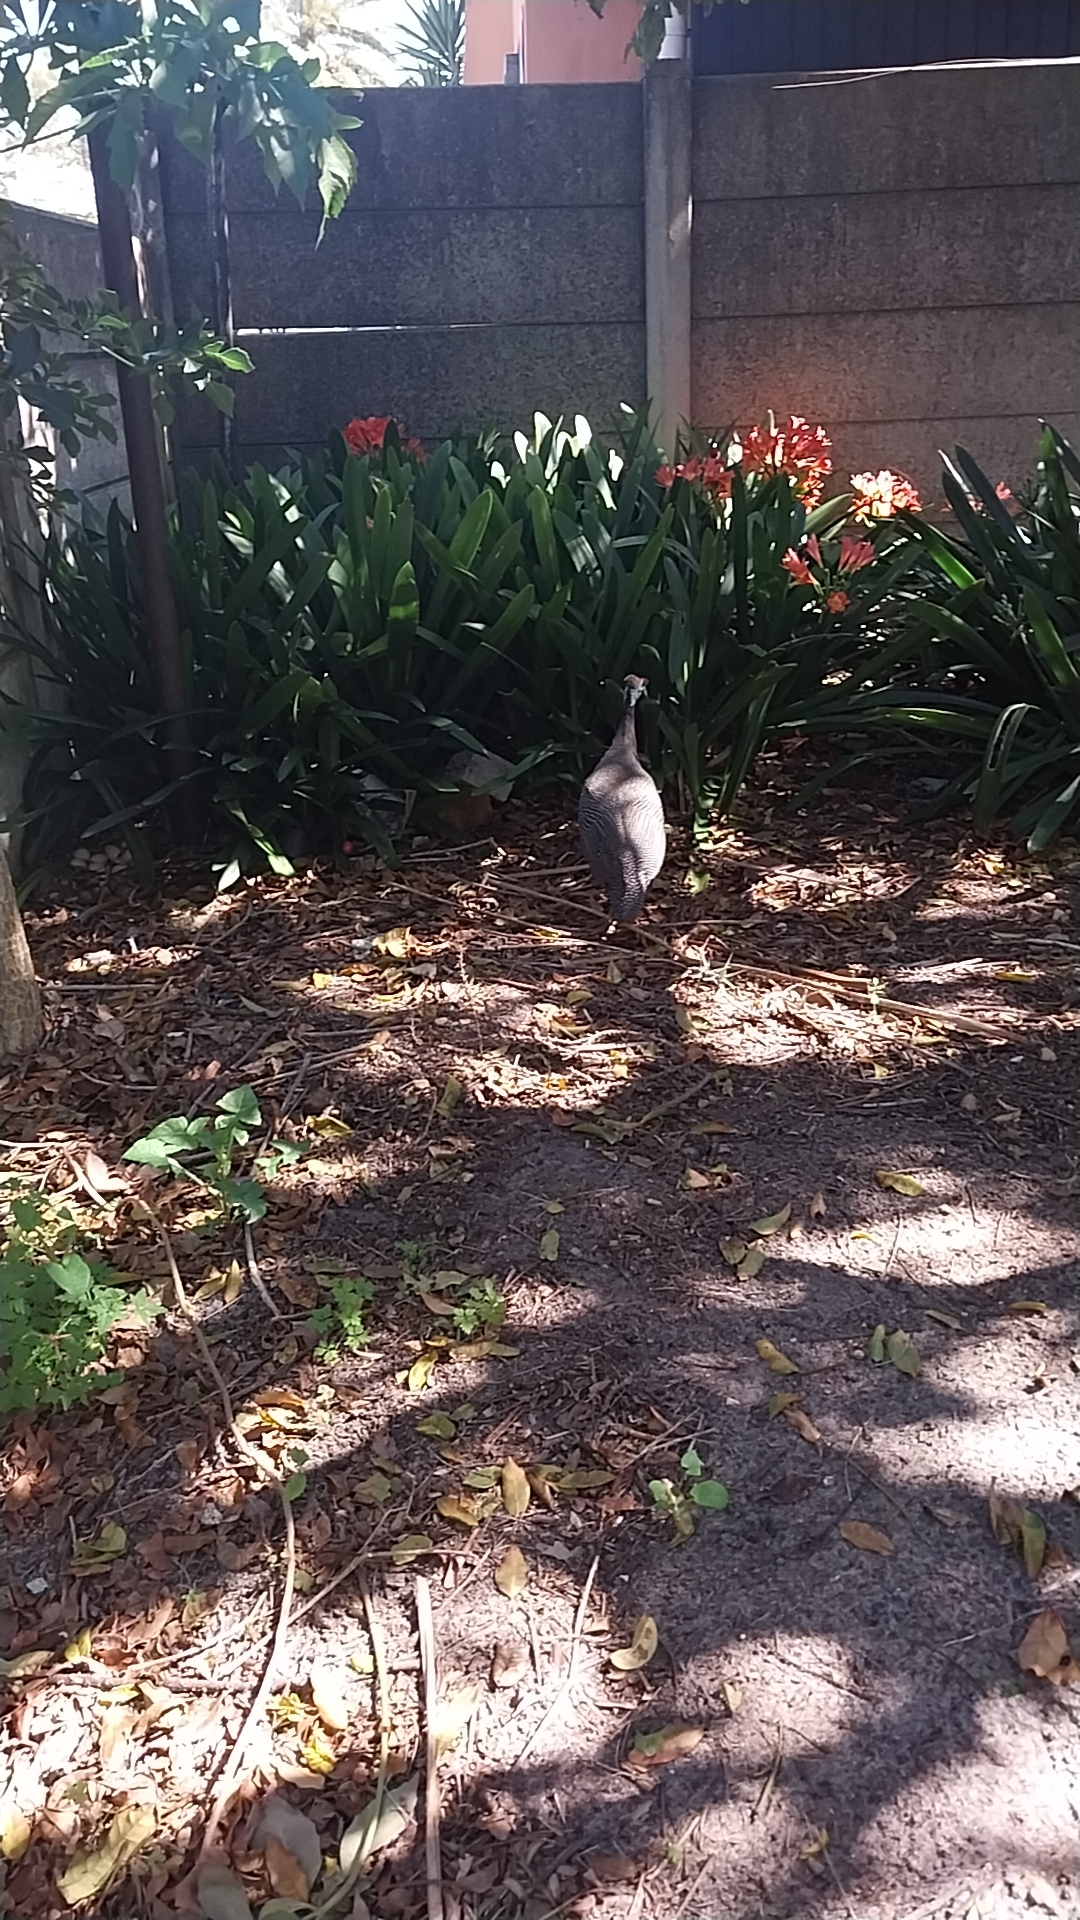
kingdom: Animalia
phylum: Chordata
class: Aves
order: Galliformes
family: Numididae
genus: Numida
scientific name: Numida meleagris
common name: Helmeted guineafowl
